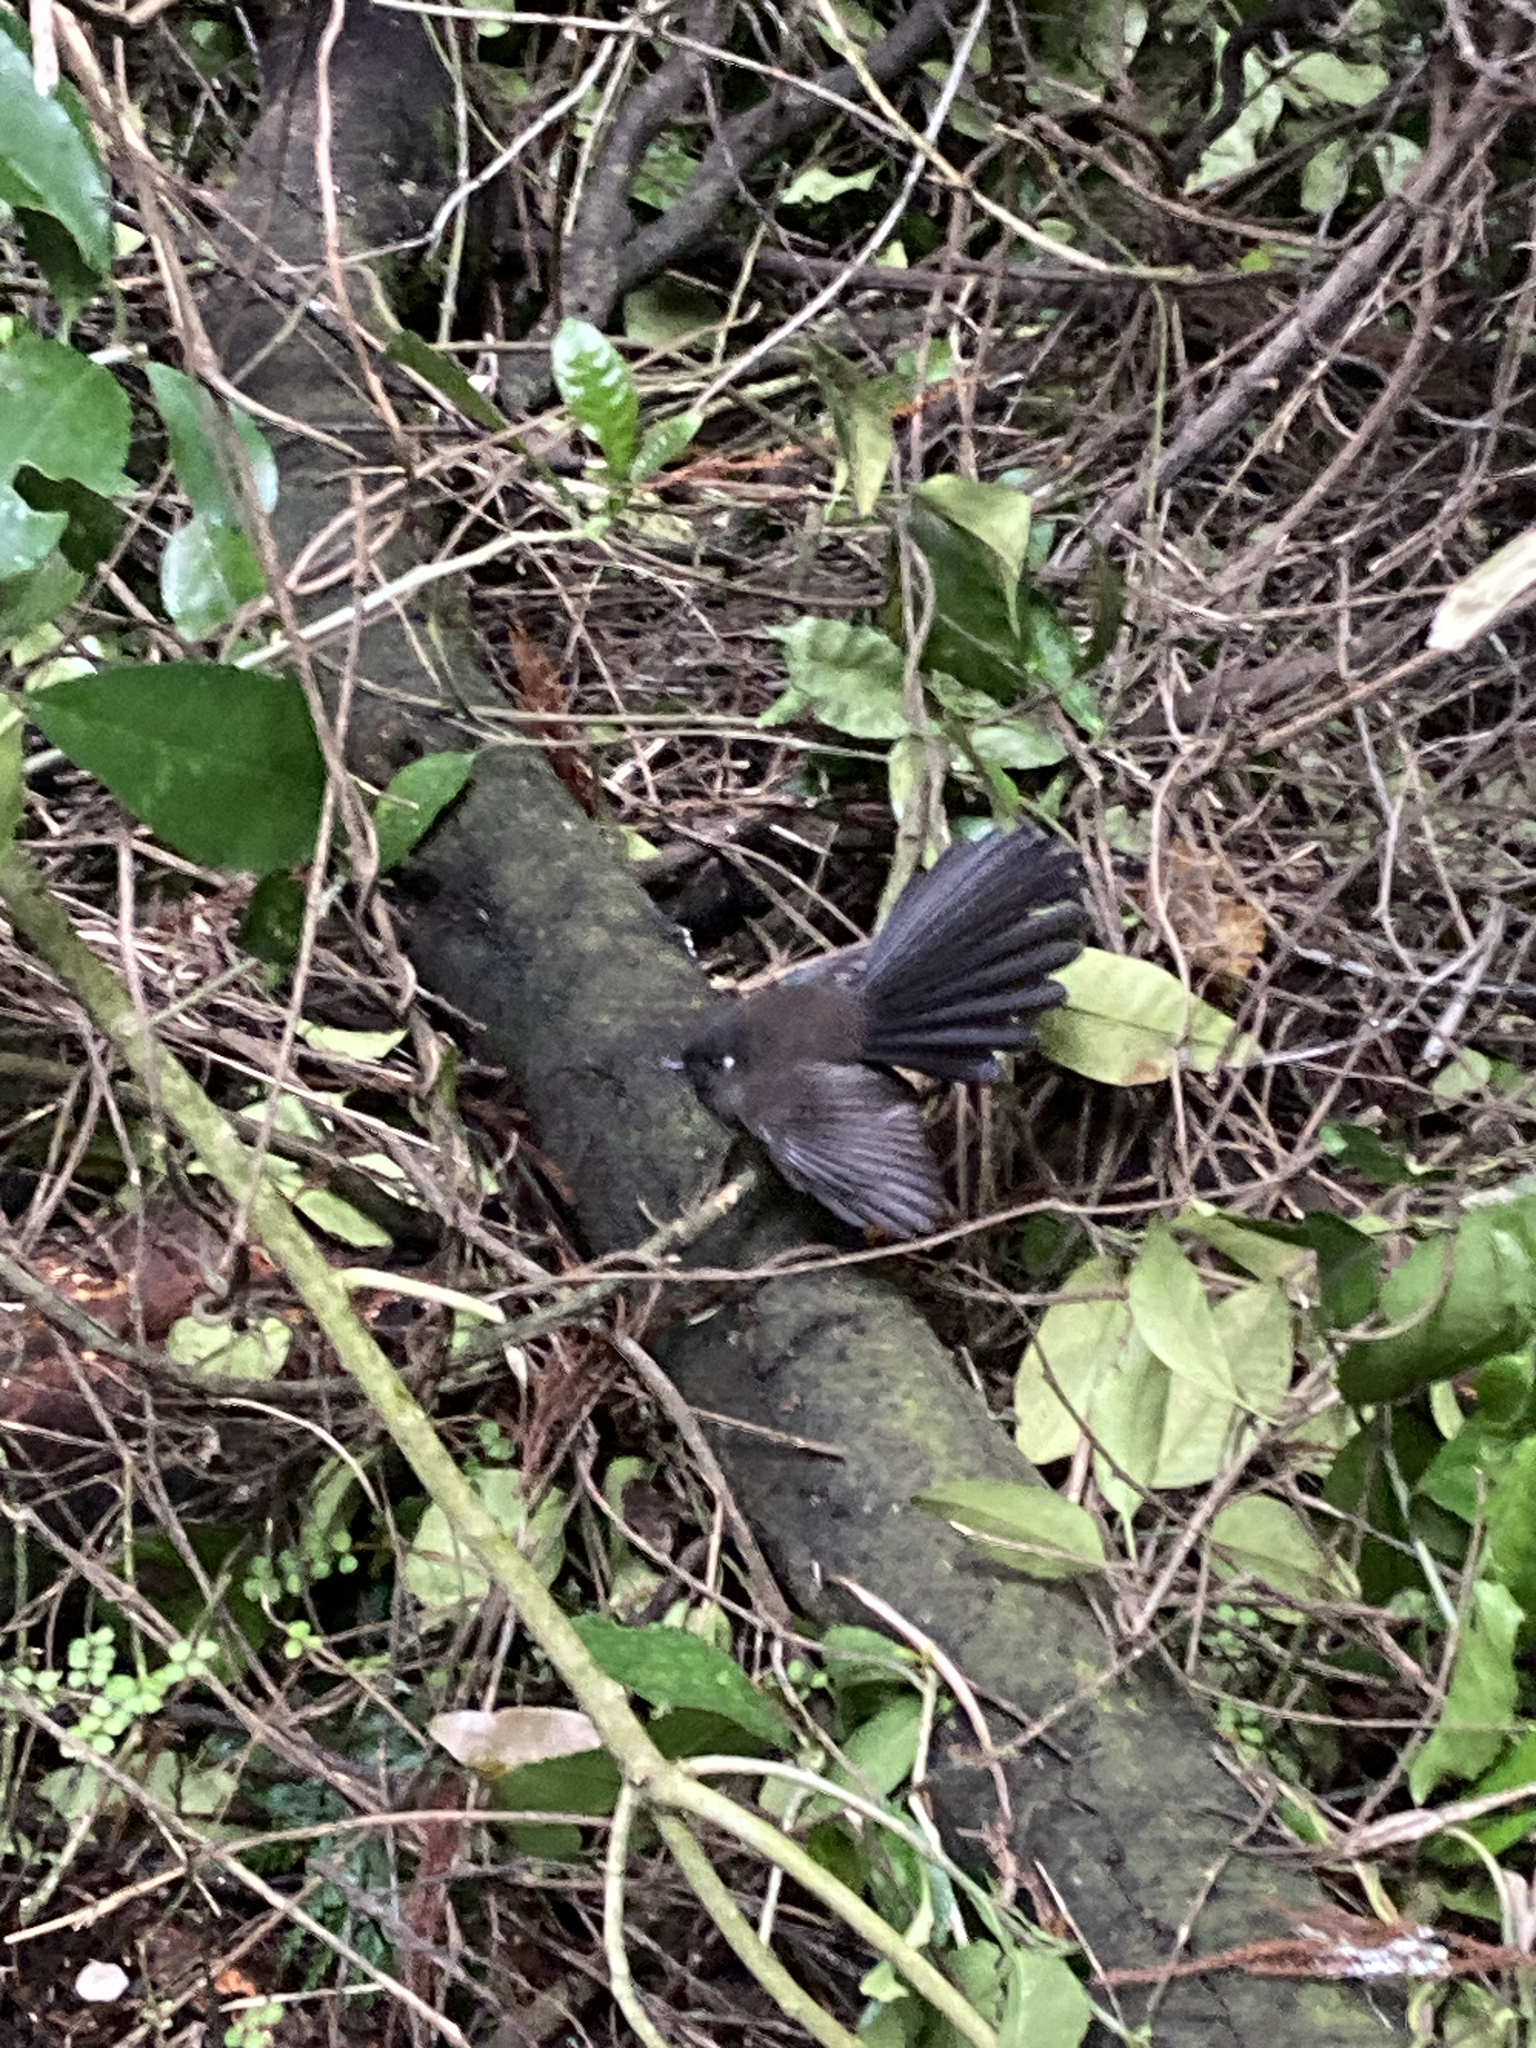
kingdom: Animalia
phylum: Chordata
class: Aves
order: Passeriformes
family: Rhipiduridae
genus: Rhipidura
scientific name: Rhipidura fuliginosa
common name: New zealand fantail
